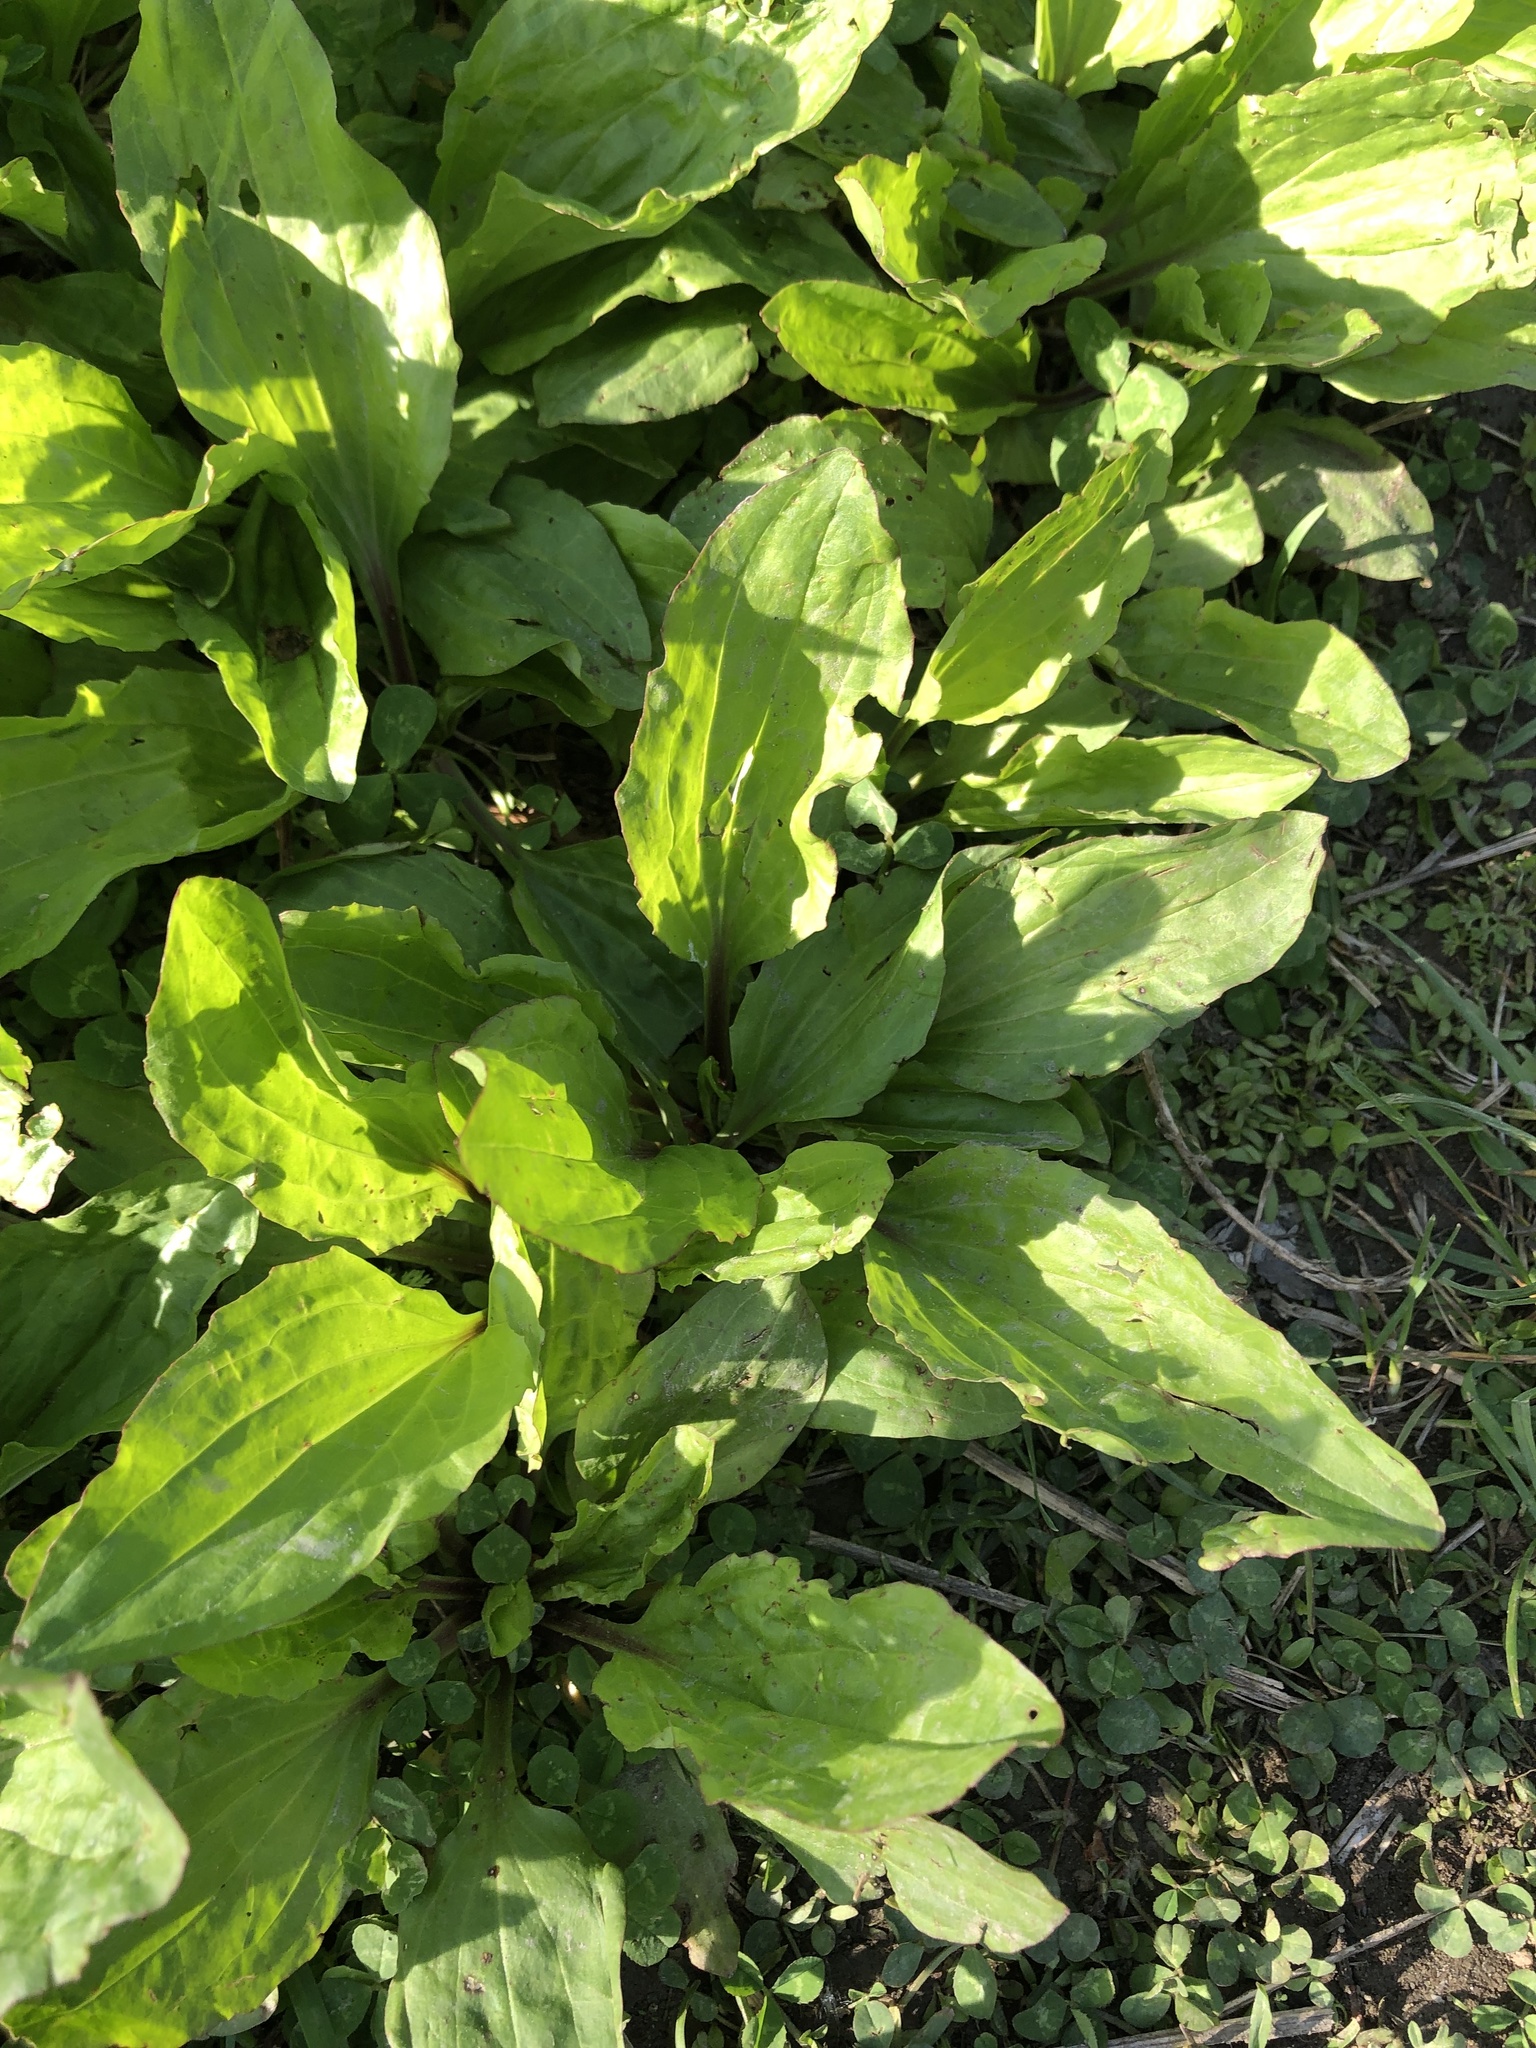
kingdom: Plantae
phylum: Tracheophyta
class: Magnoliopsida
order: Lamiales
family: Plantaginaceae
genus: Plantago
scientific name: Plantago rugelii
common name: American plantain
